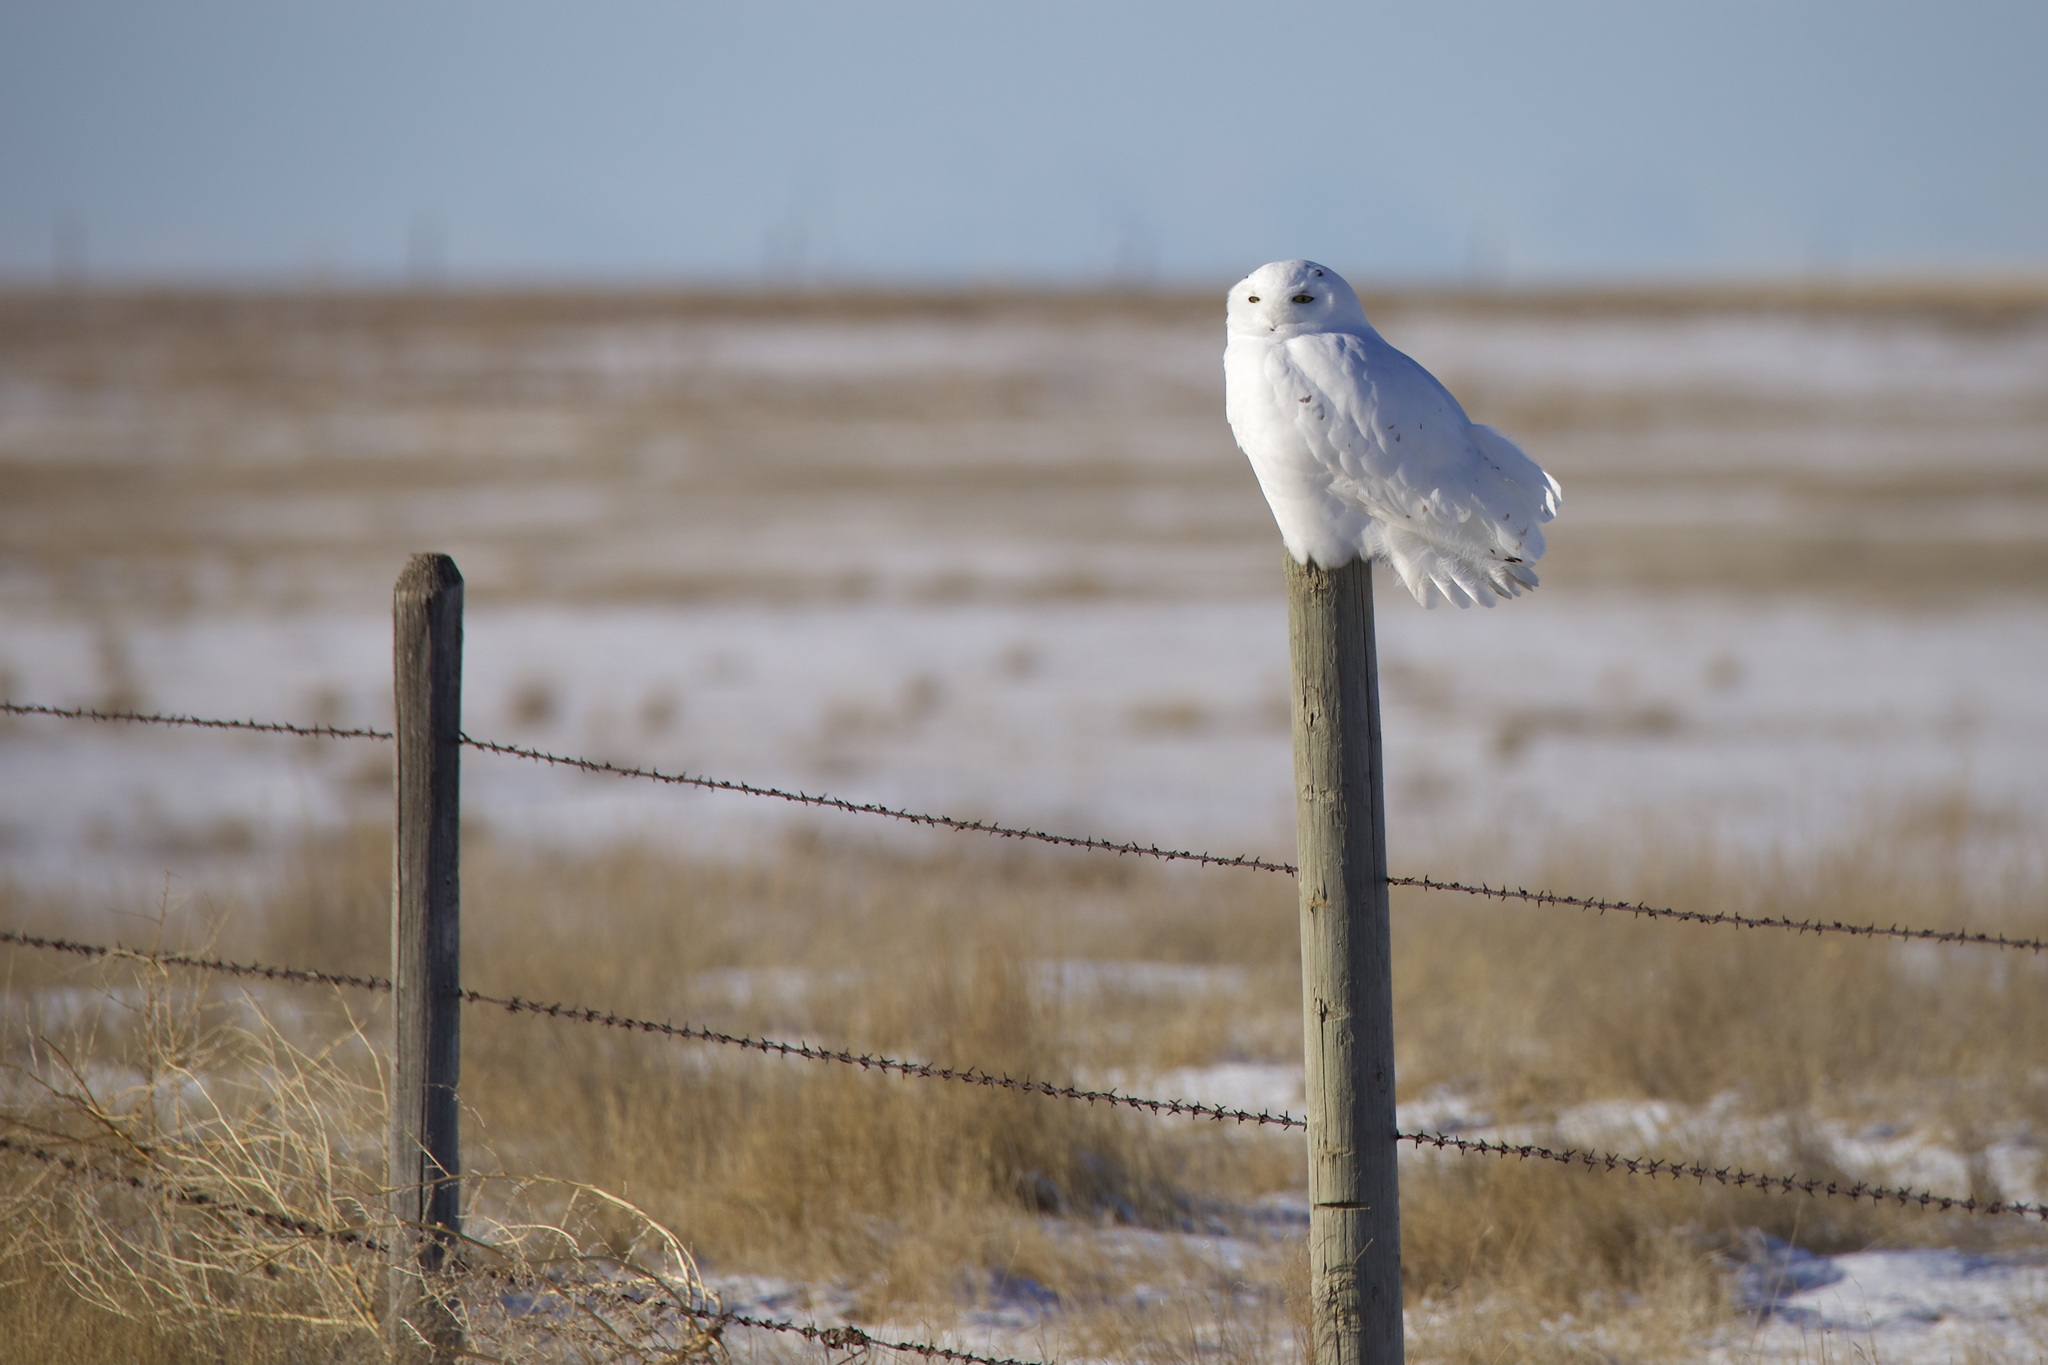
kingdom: Animalia
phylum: Chordata
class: Aves
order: Strigiformes
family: Strigidae
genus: Bubo
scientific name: Bubo scandiacus
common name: Snowy owl
